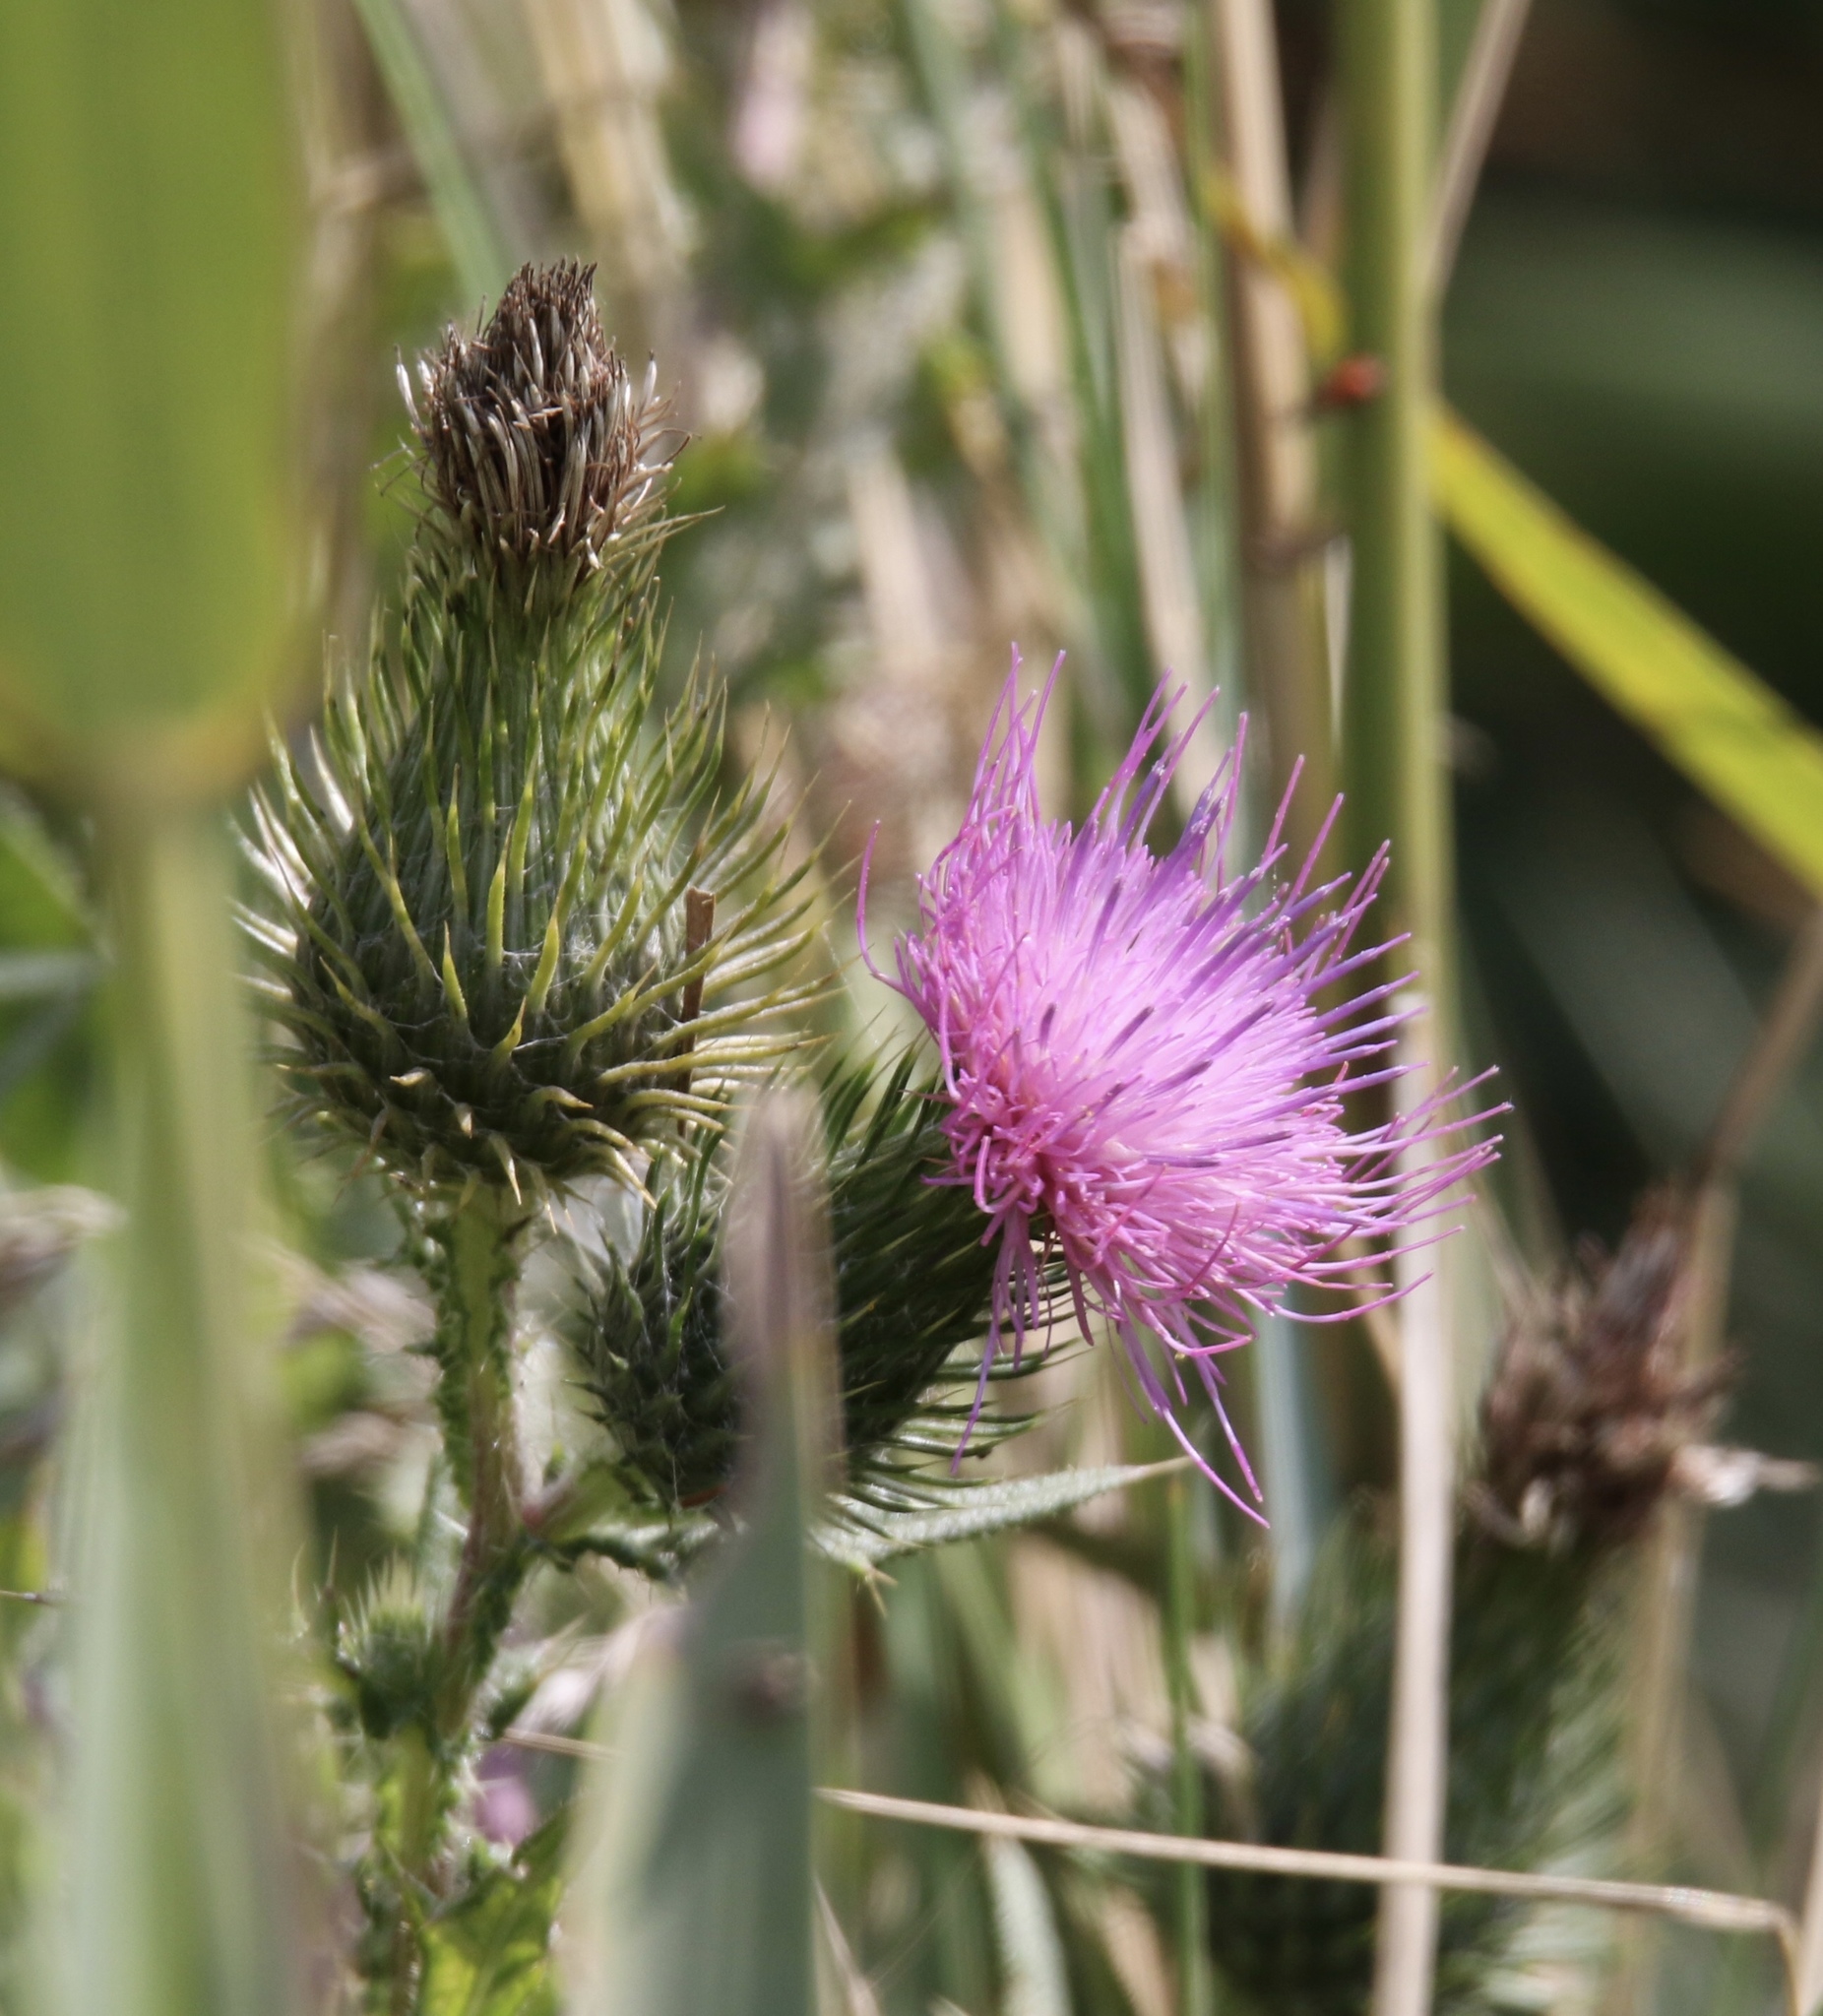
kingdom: Plantae
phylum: Tracheophyta
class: Magnoliopsida
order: Asterales
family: Asteraceae
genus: Cirsium
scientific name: Cirsium vulgare
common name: Bull thistle
